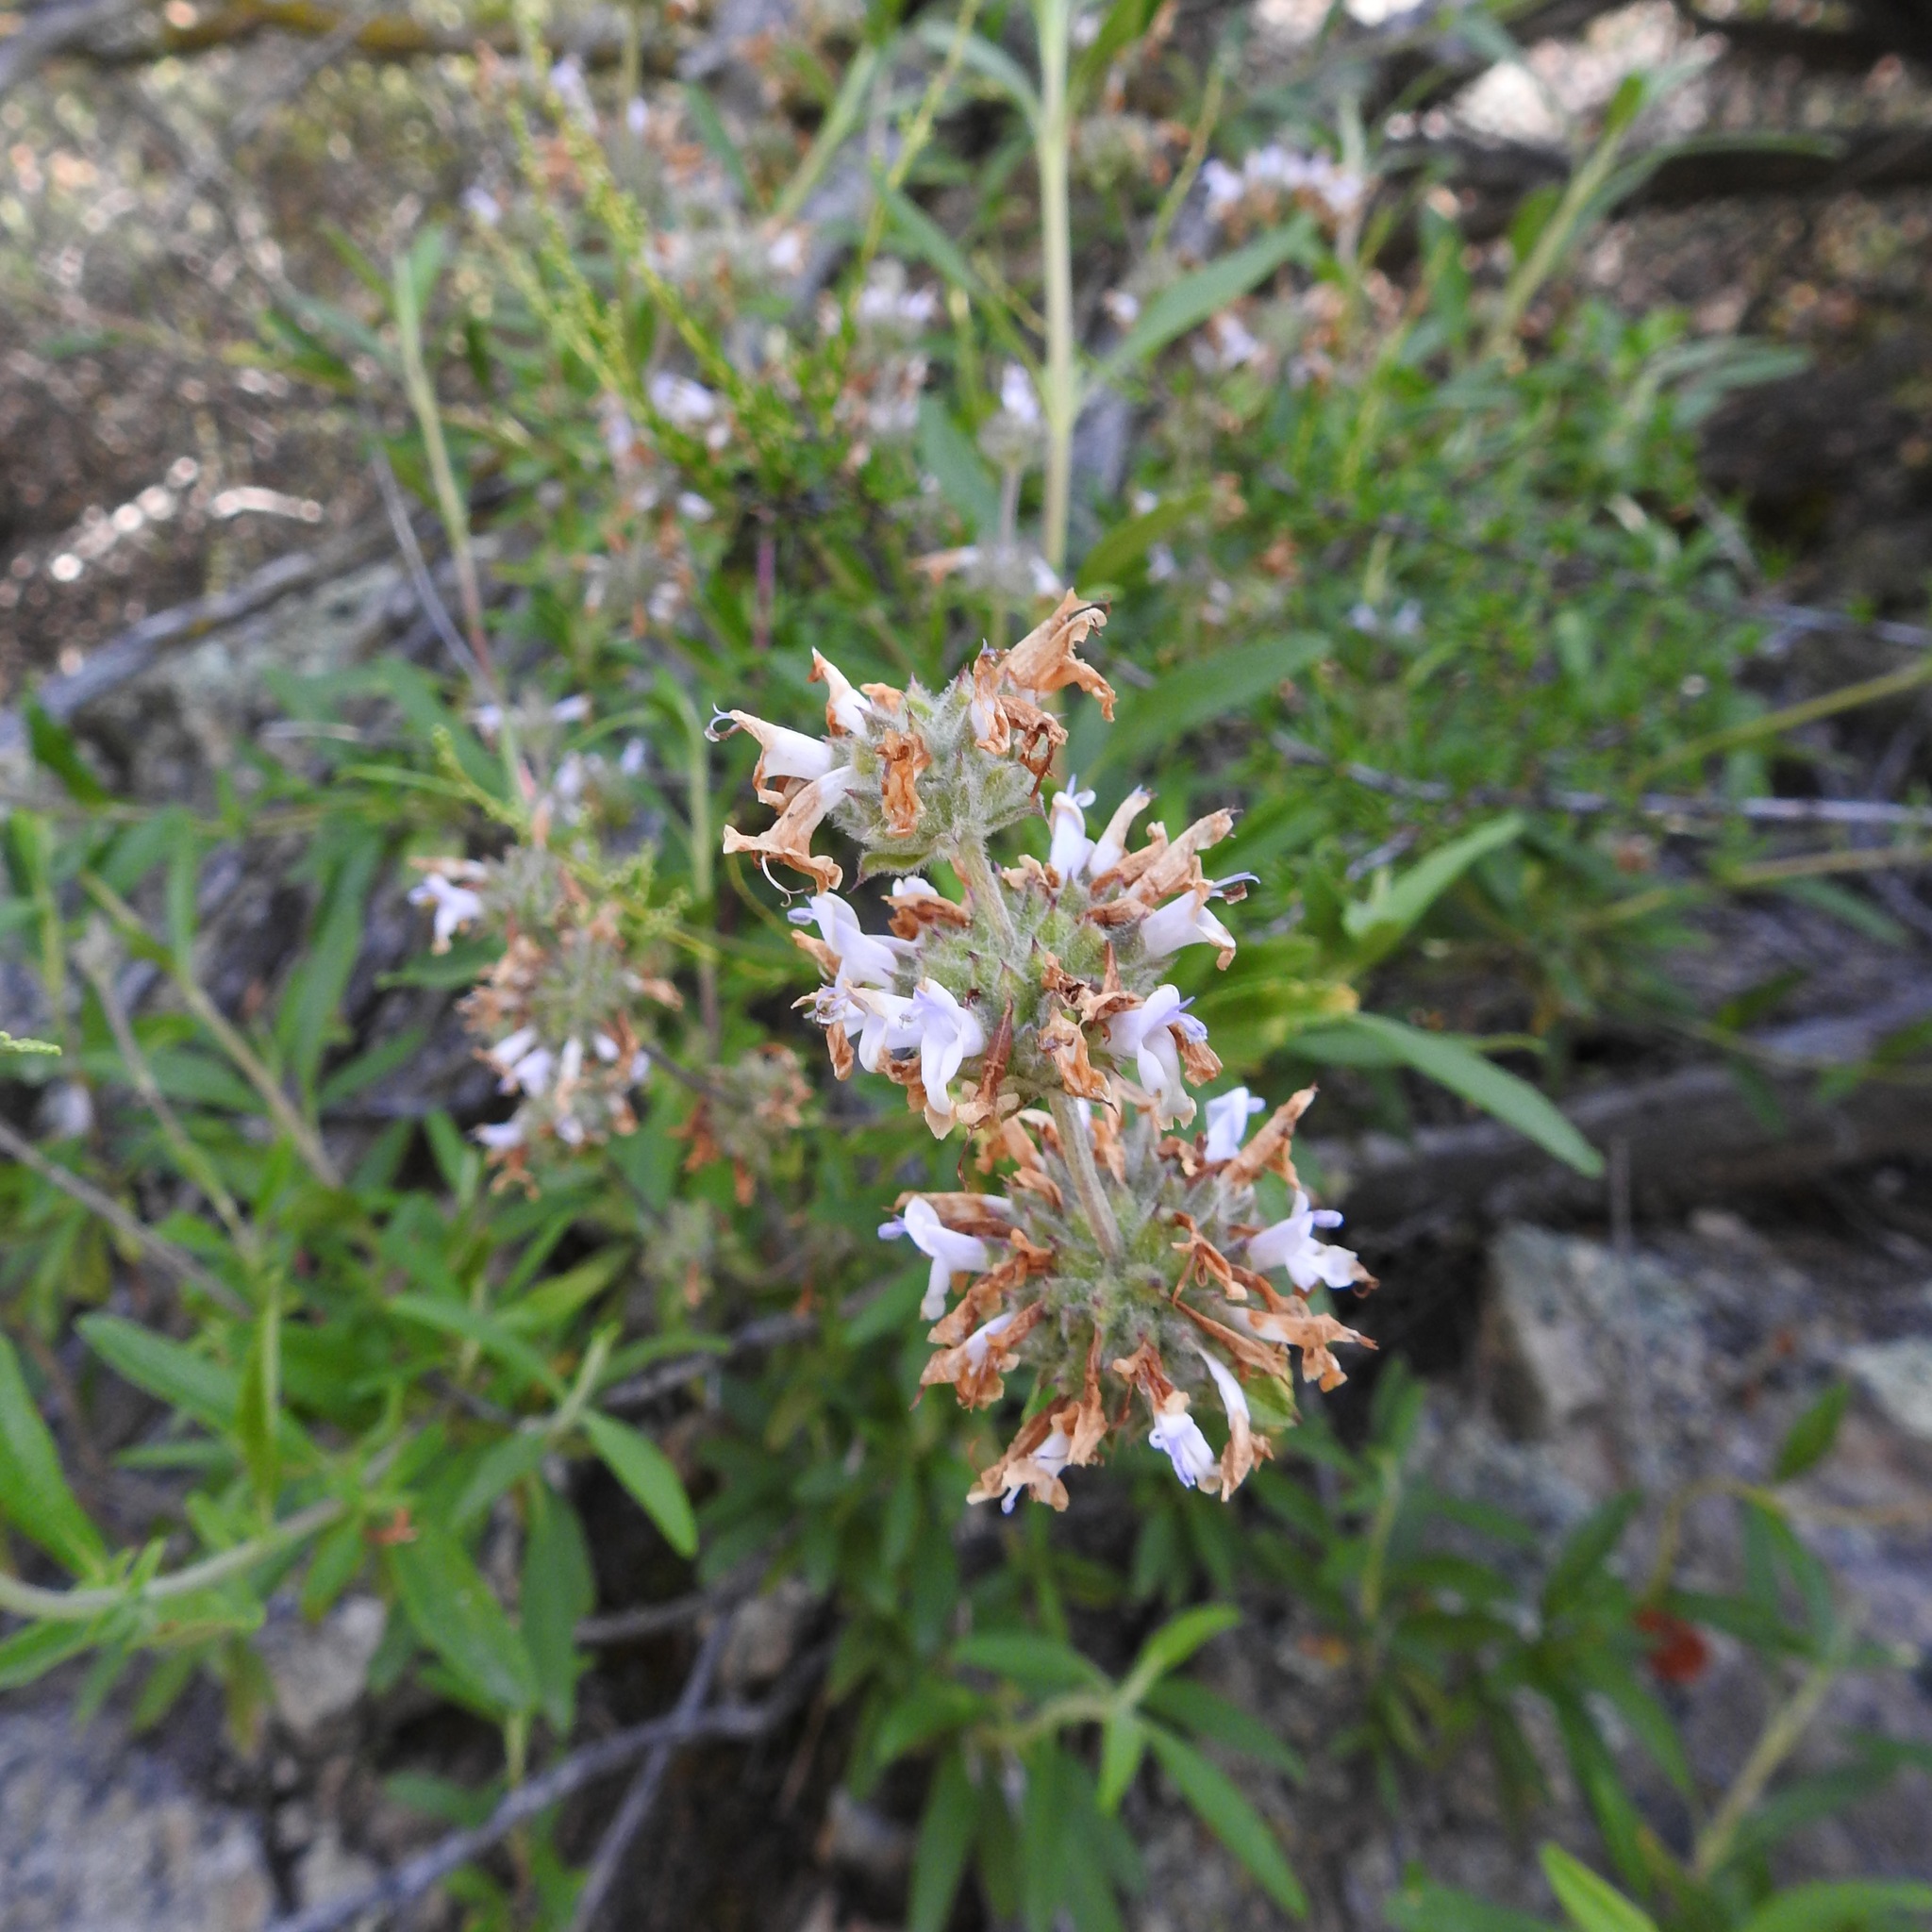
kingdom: Plantae
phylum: Tracheophyta
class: Magnoliopsida
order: Lamiales
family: Lamiaceae
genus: Salvia
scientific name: Salvia mellifera
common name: Black sage
